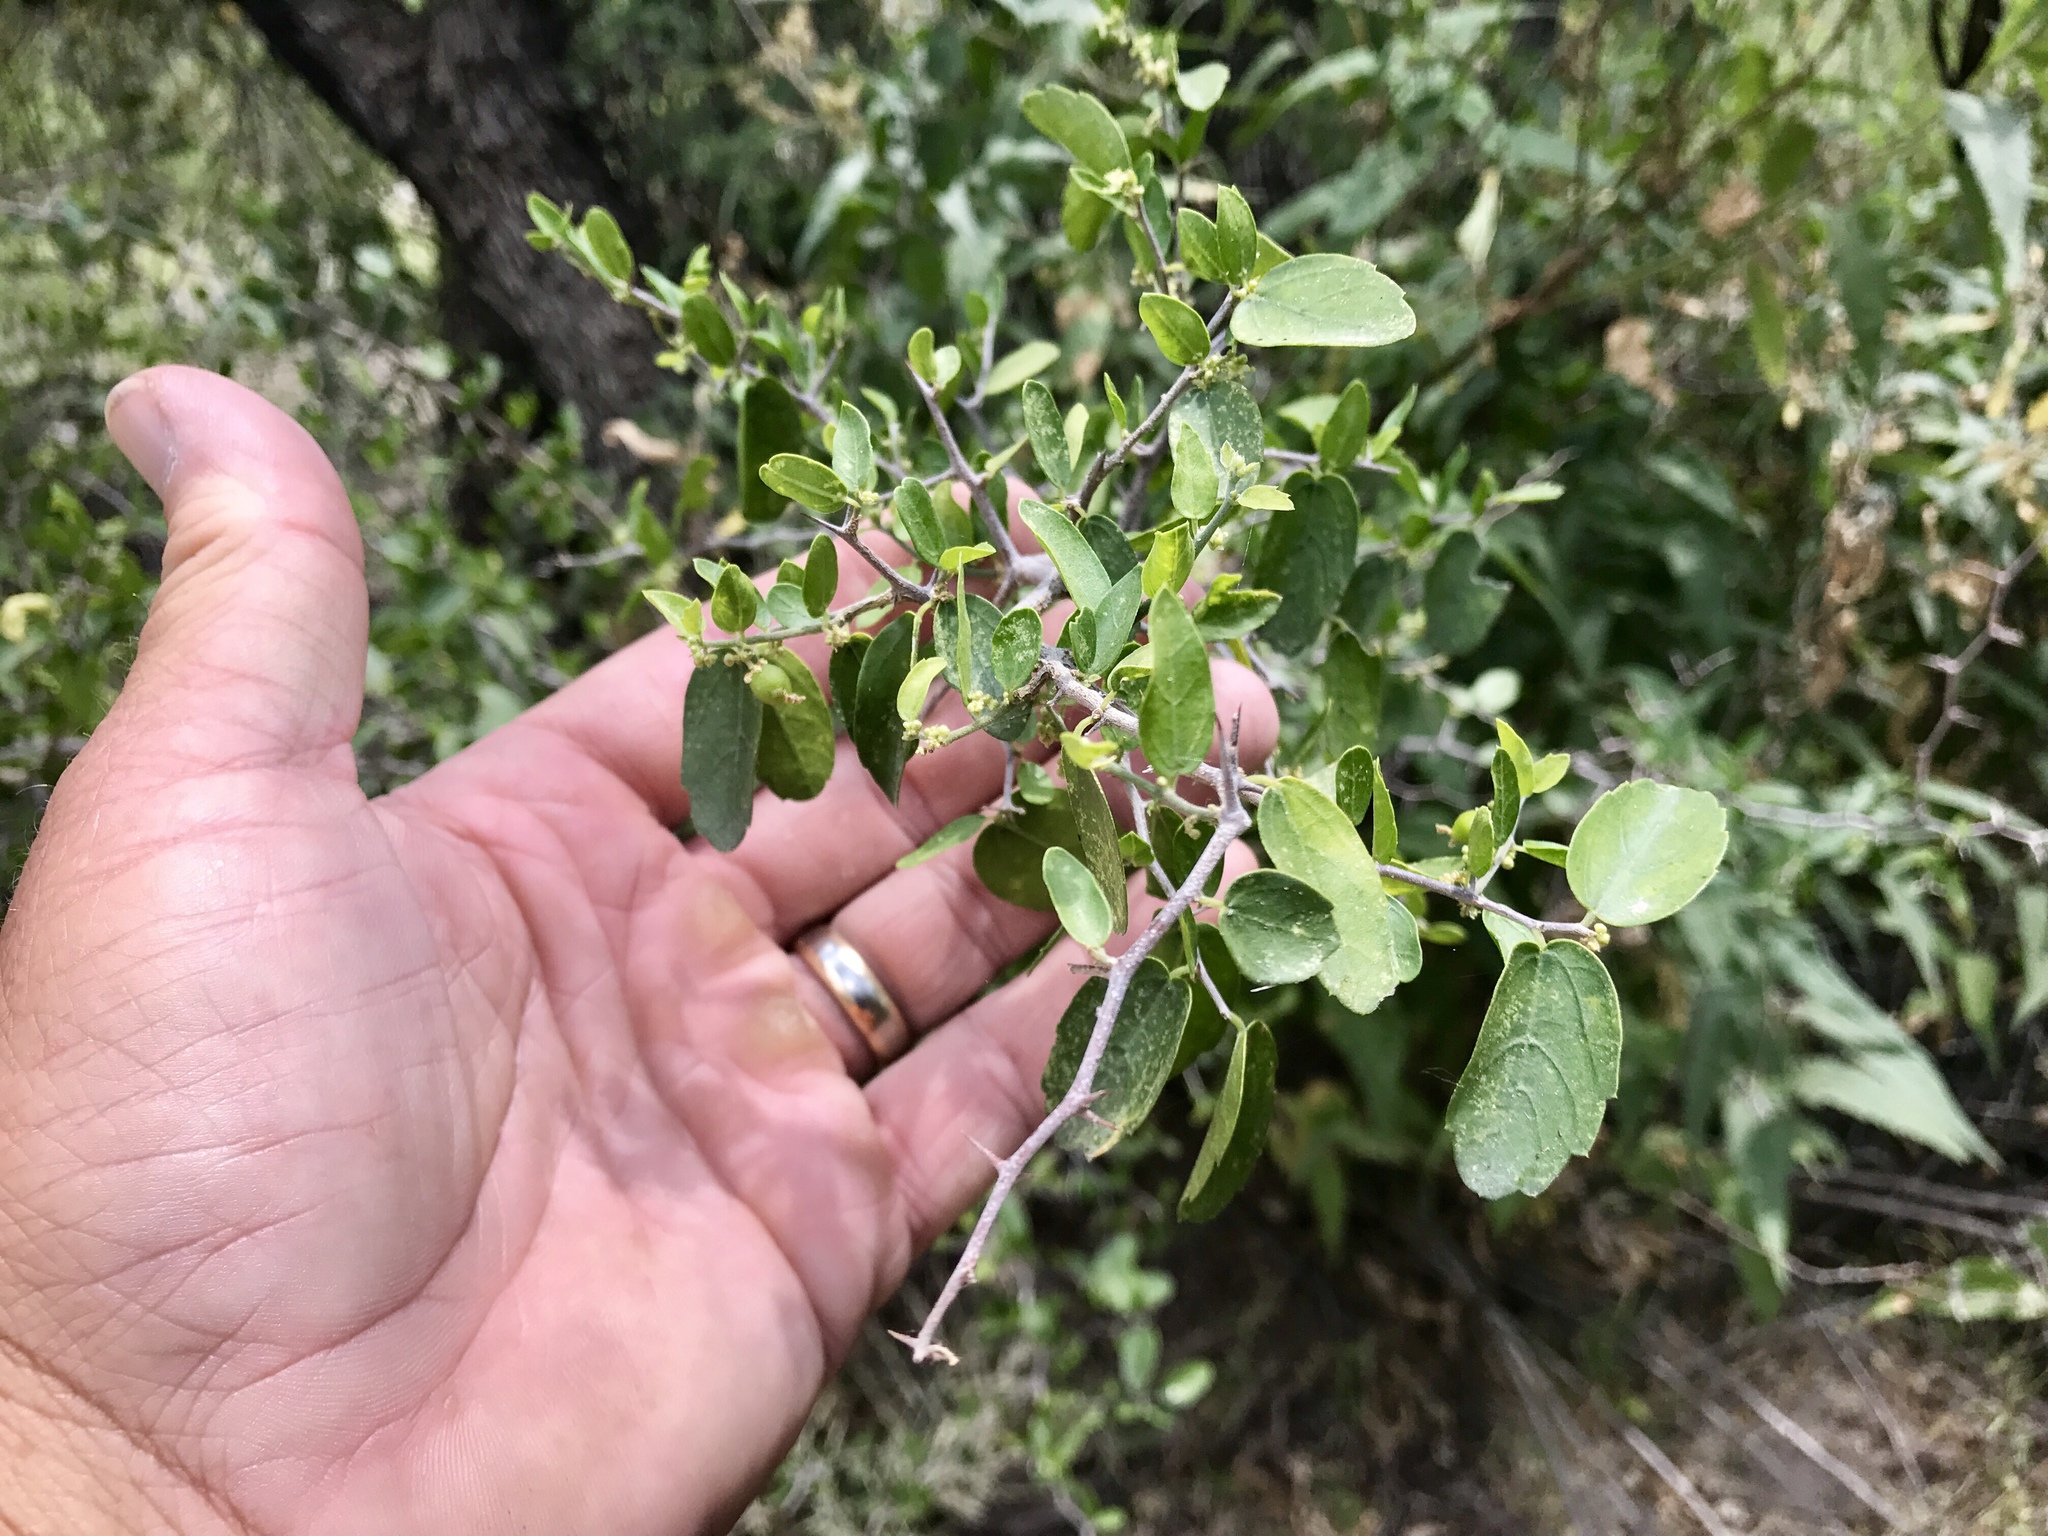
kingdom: Plantae
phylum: Tracheophyta
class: Magnoliopsida
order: Rosales
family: Cannabaceae
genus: Celtis
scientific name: Celtis pallida
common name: Desert hackberry
